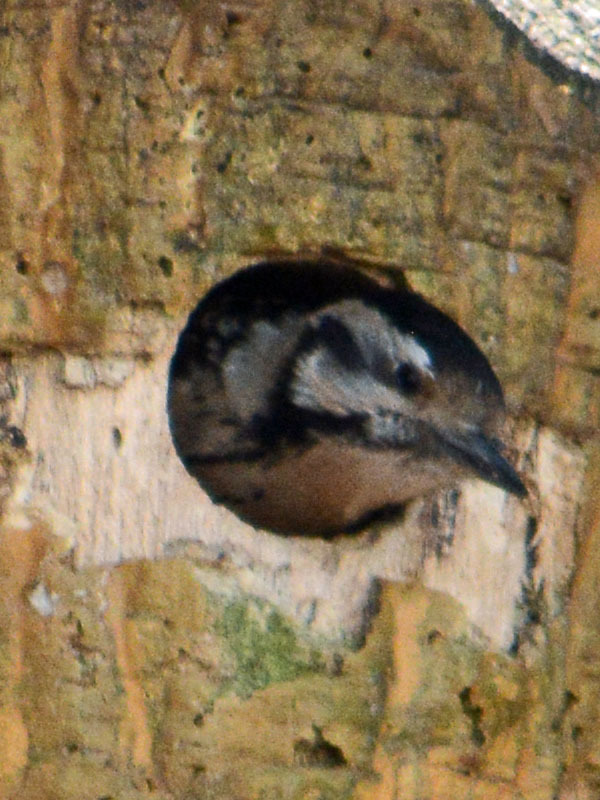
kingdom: Animalia
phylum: Chordata
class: Aves
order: Piciformes
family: Picidae
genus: Dryobates
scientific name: Dryobates scalaris
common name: Ladder-backed woodpecker
